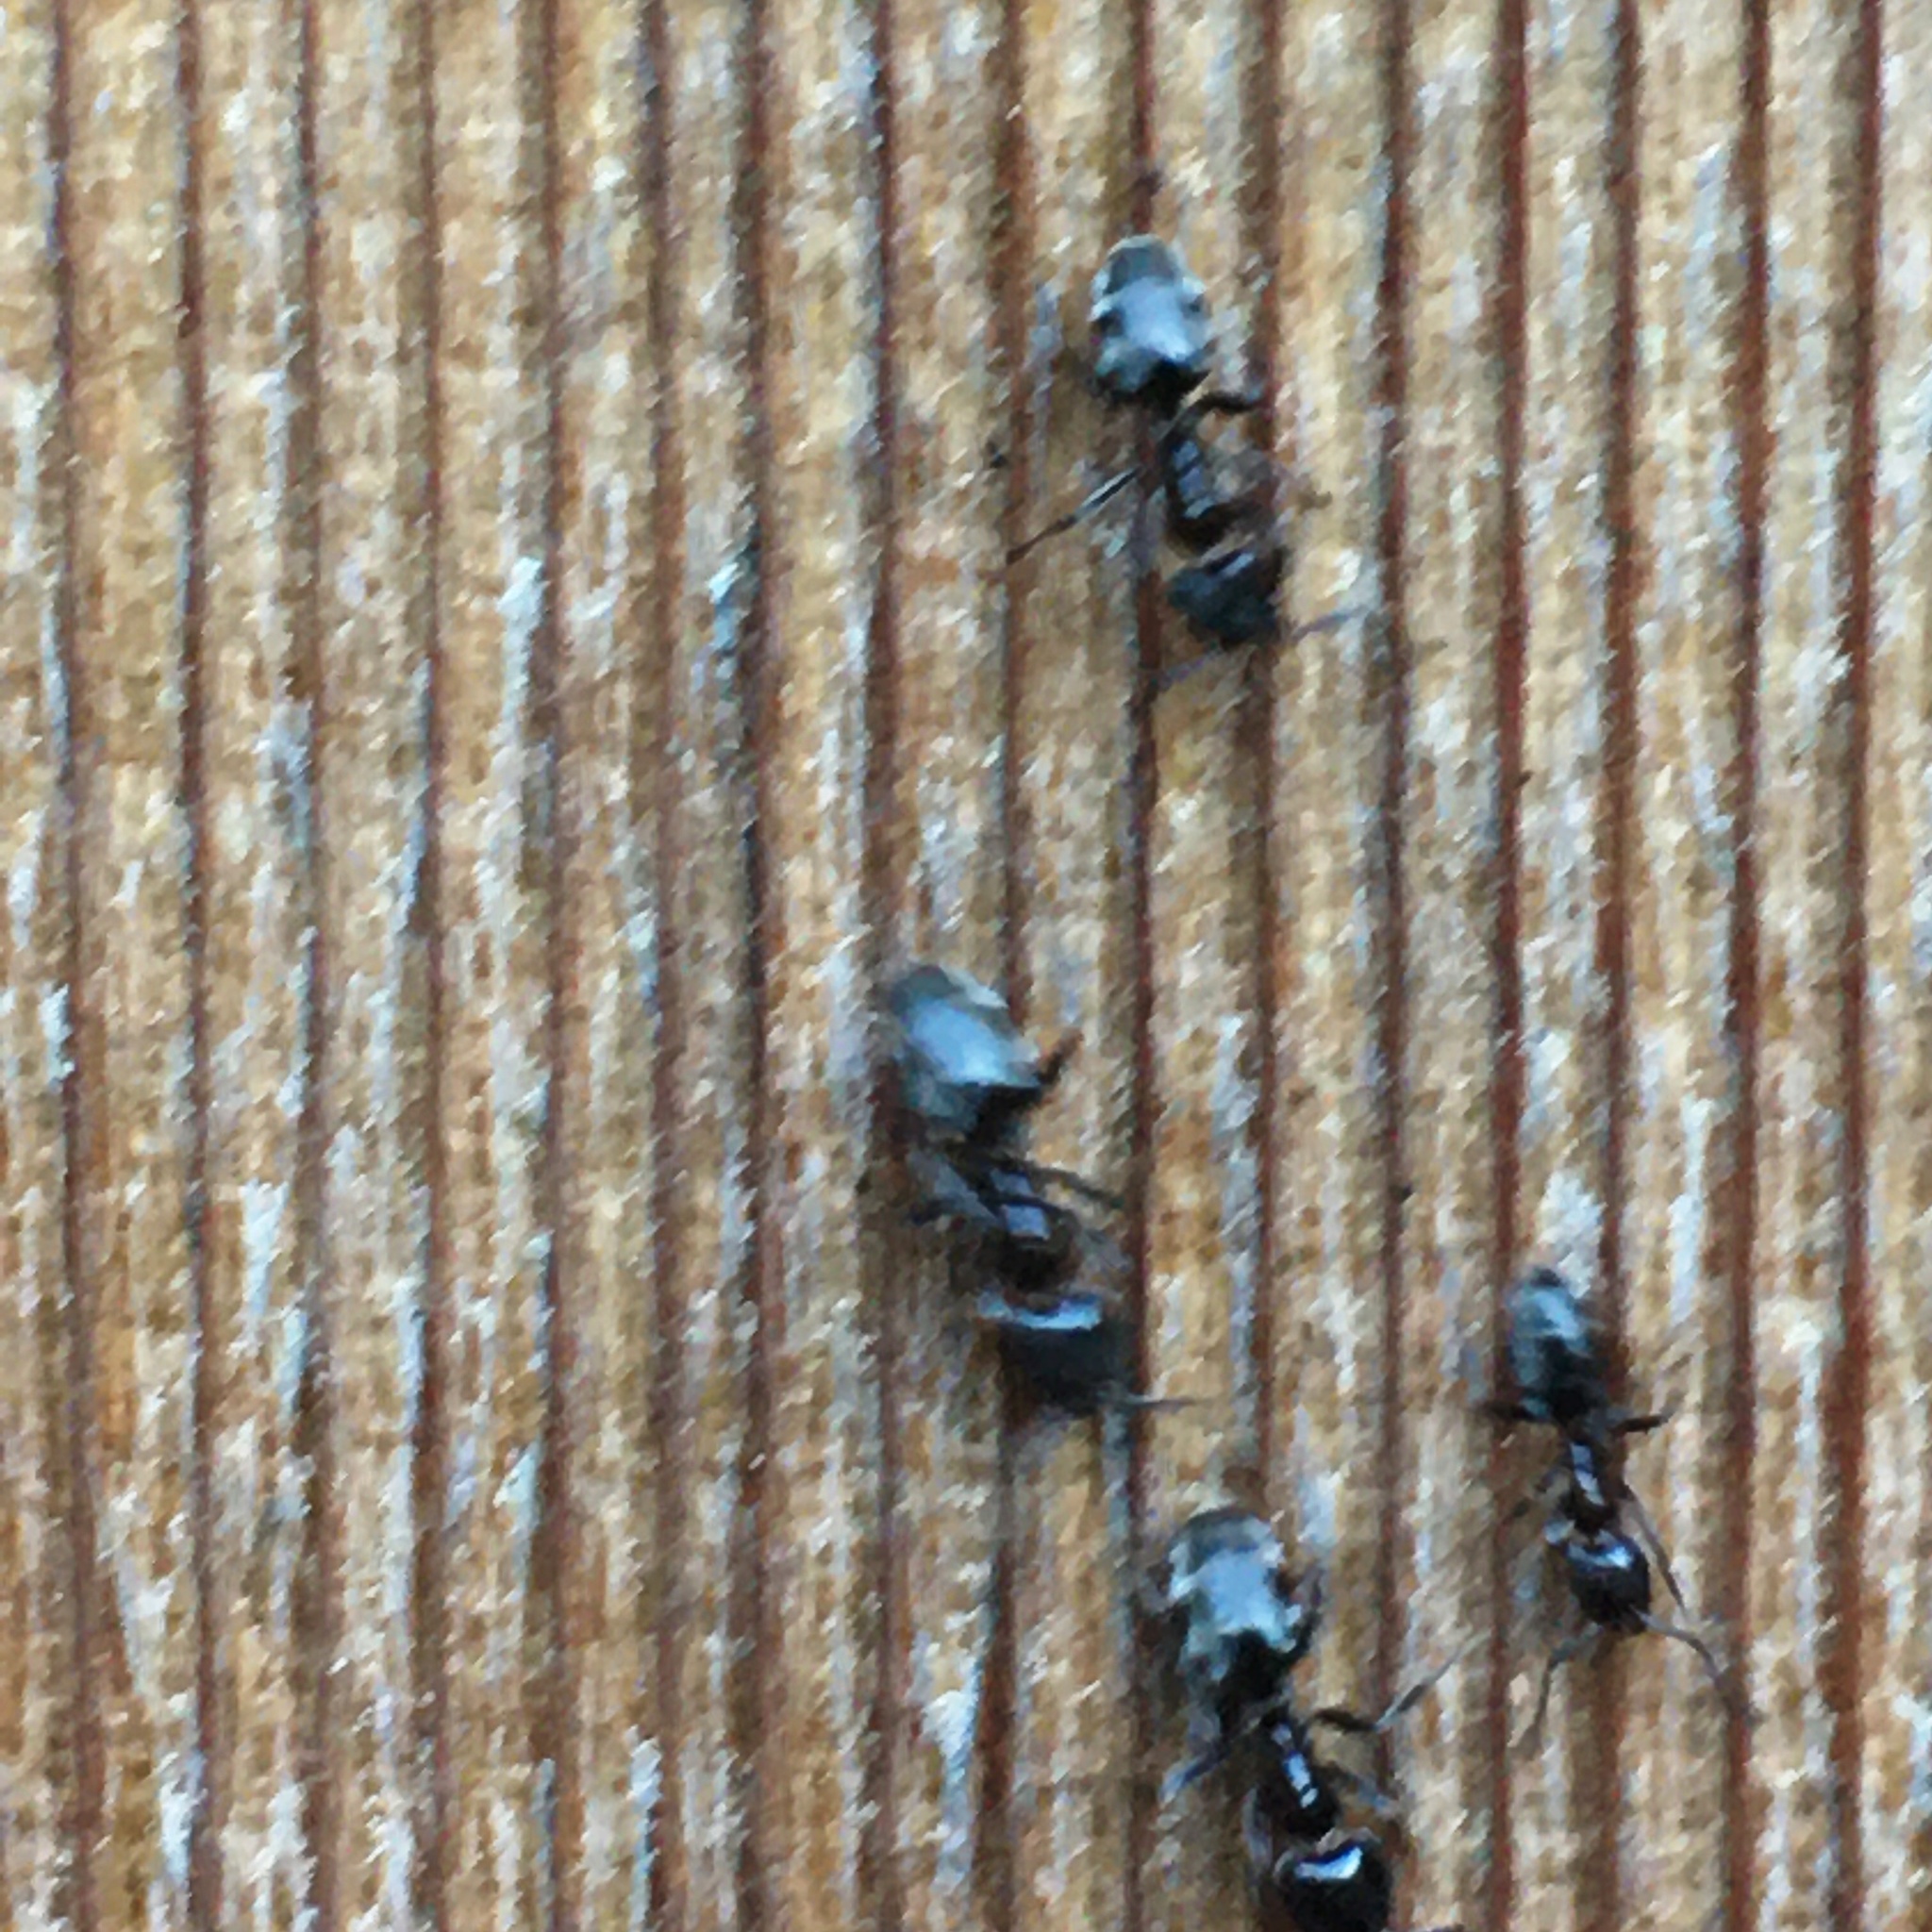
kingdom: Animalia
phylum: Arthropoda
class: Insecta
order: Hymenoptera
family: Formicidae
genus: Liometopum
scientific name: Liometopum luctuosum
